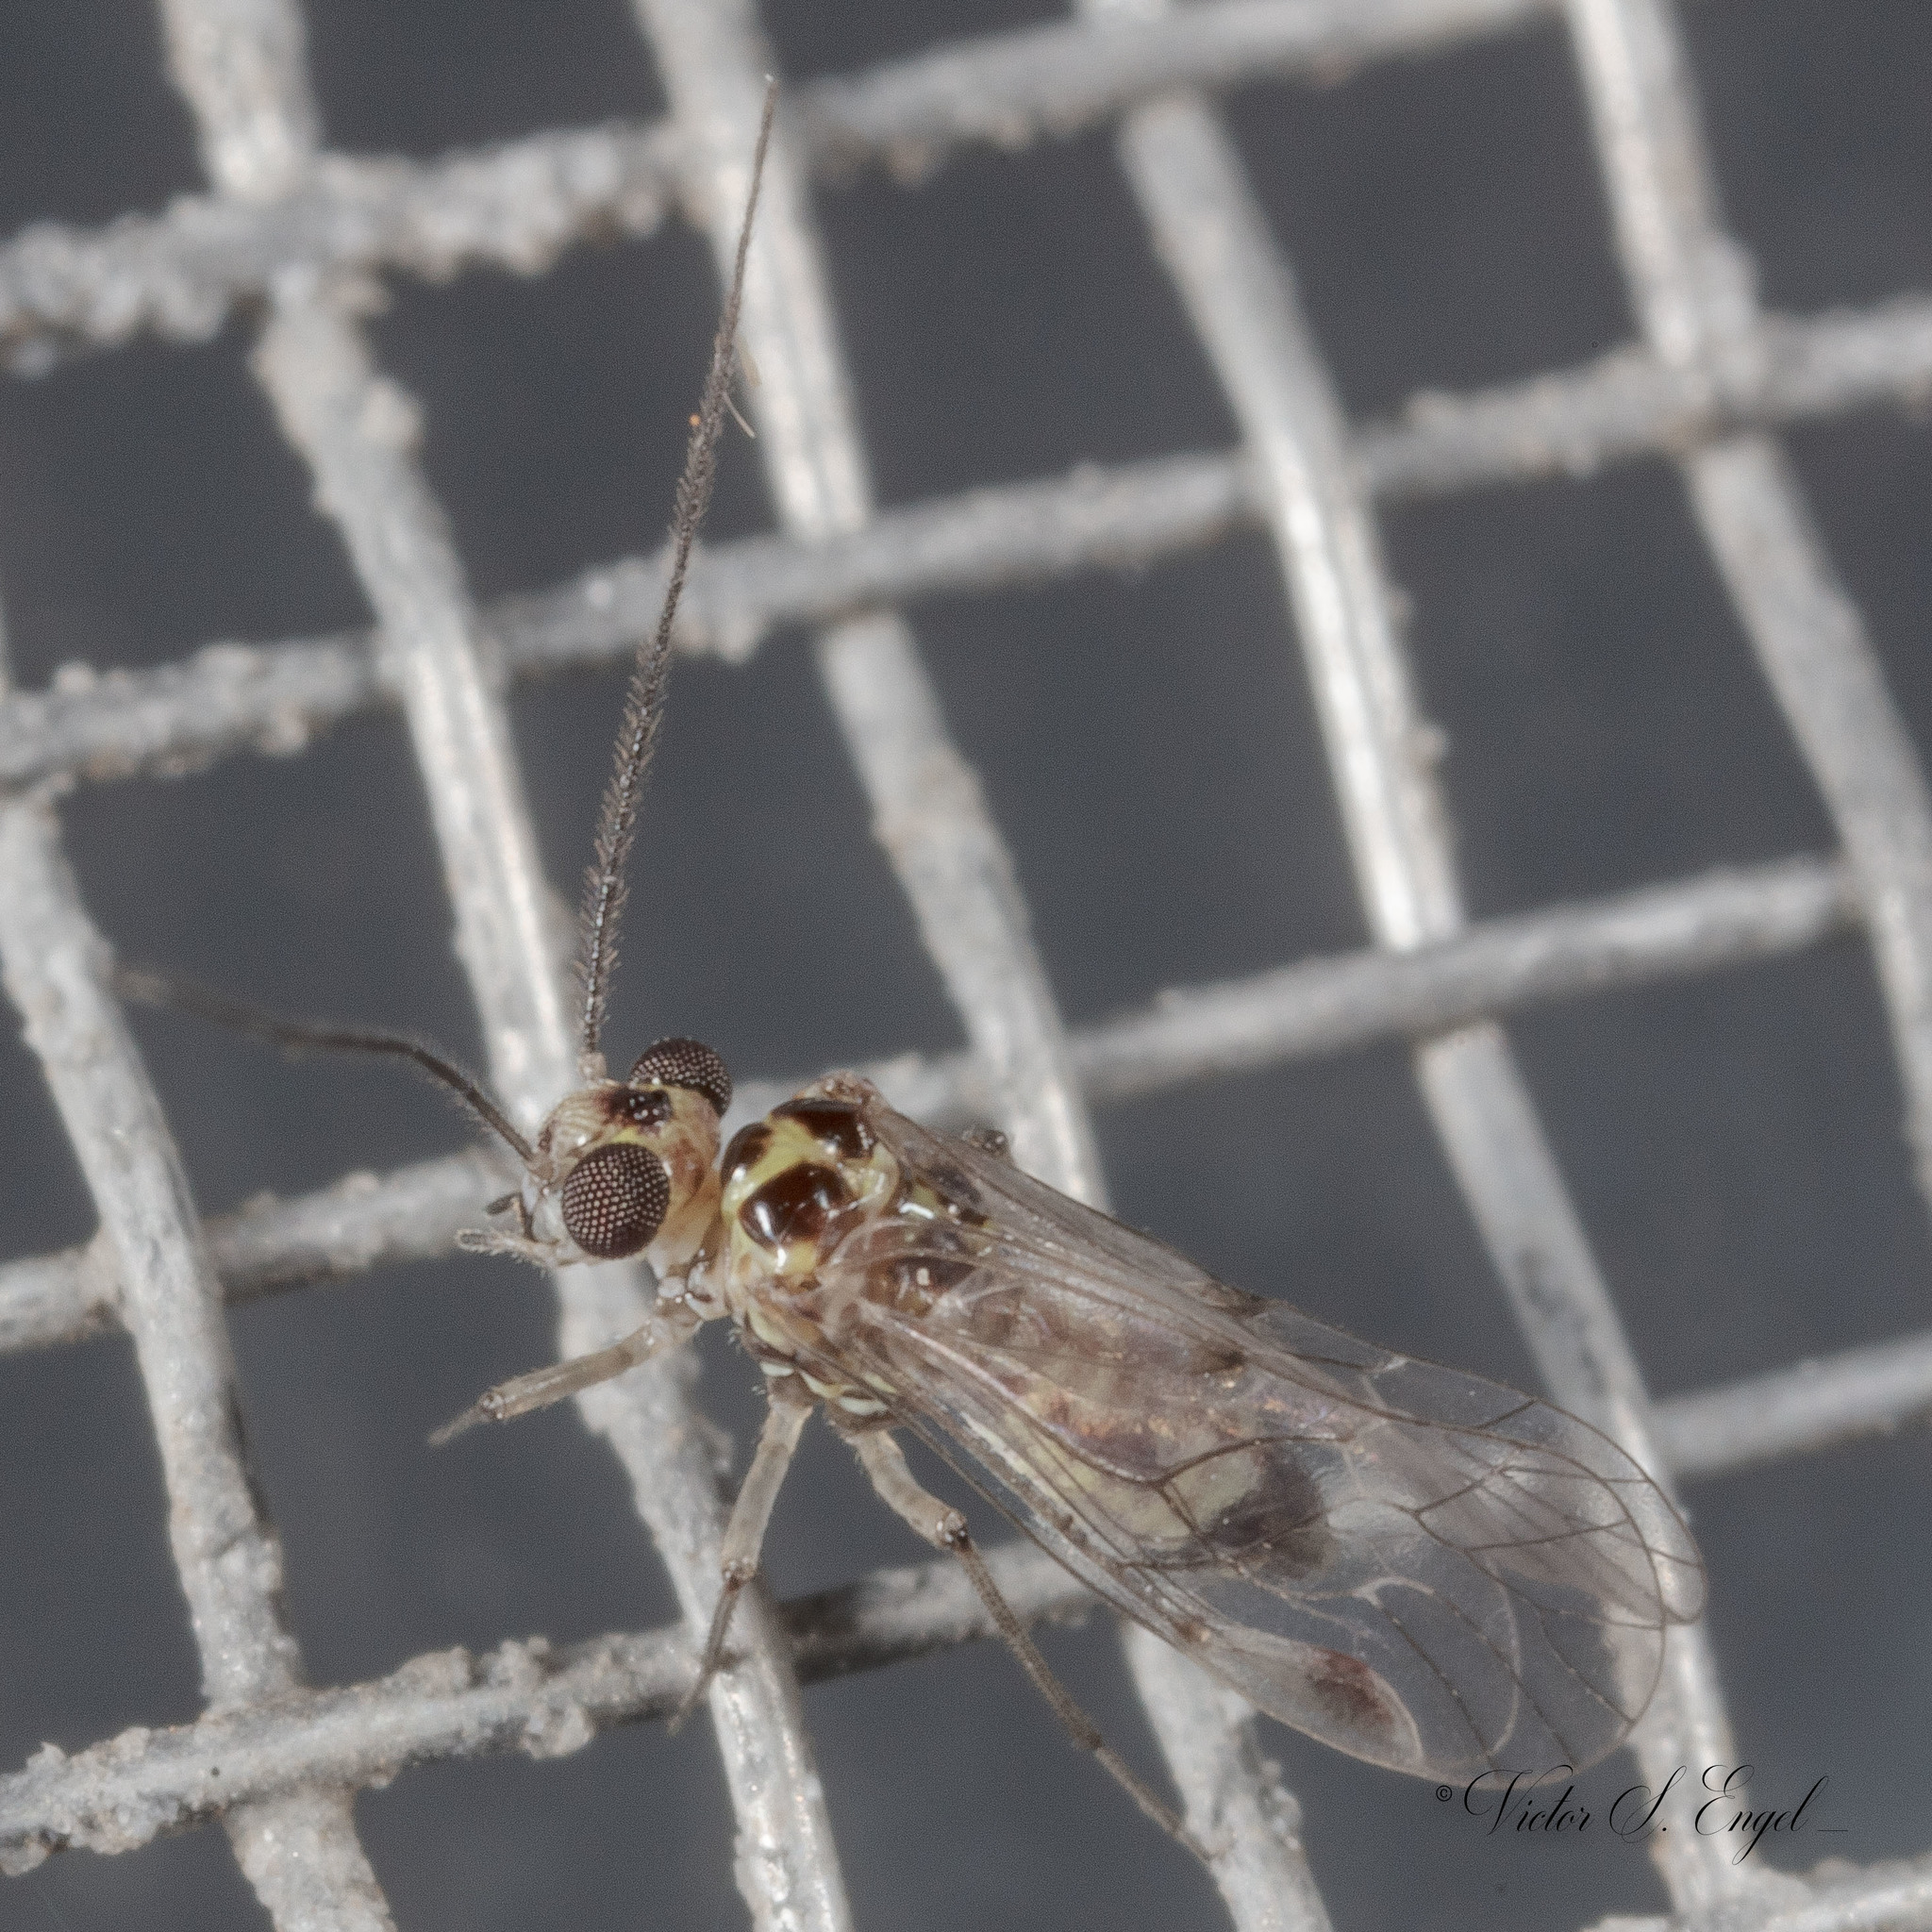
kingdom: Animalia
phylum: Arthropoda
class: Insecta
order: Psocodea
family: Psocidae
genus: Blaste
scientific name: Blaste quieta
